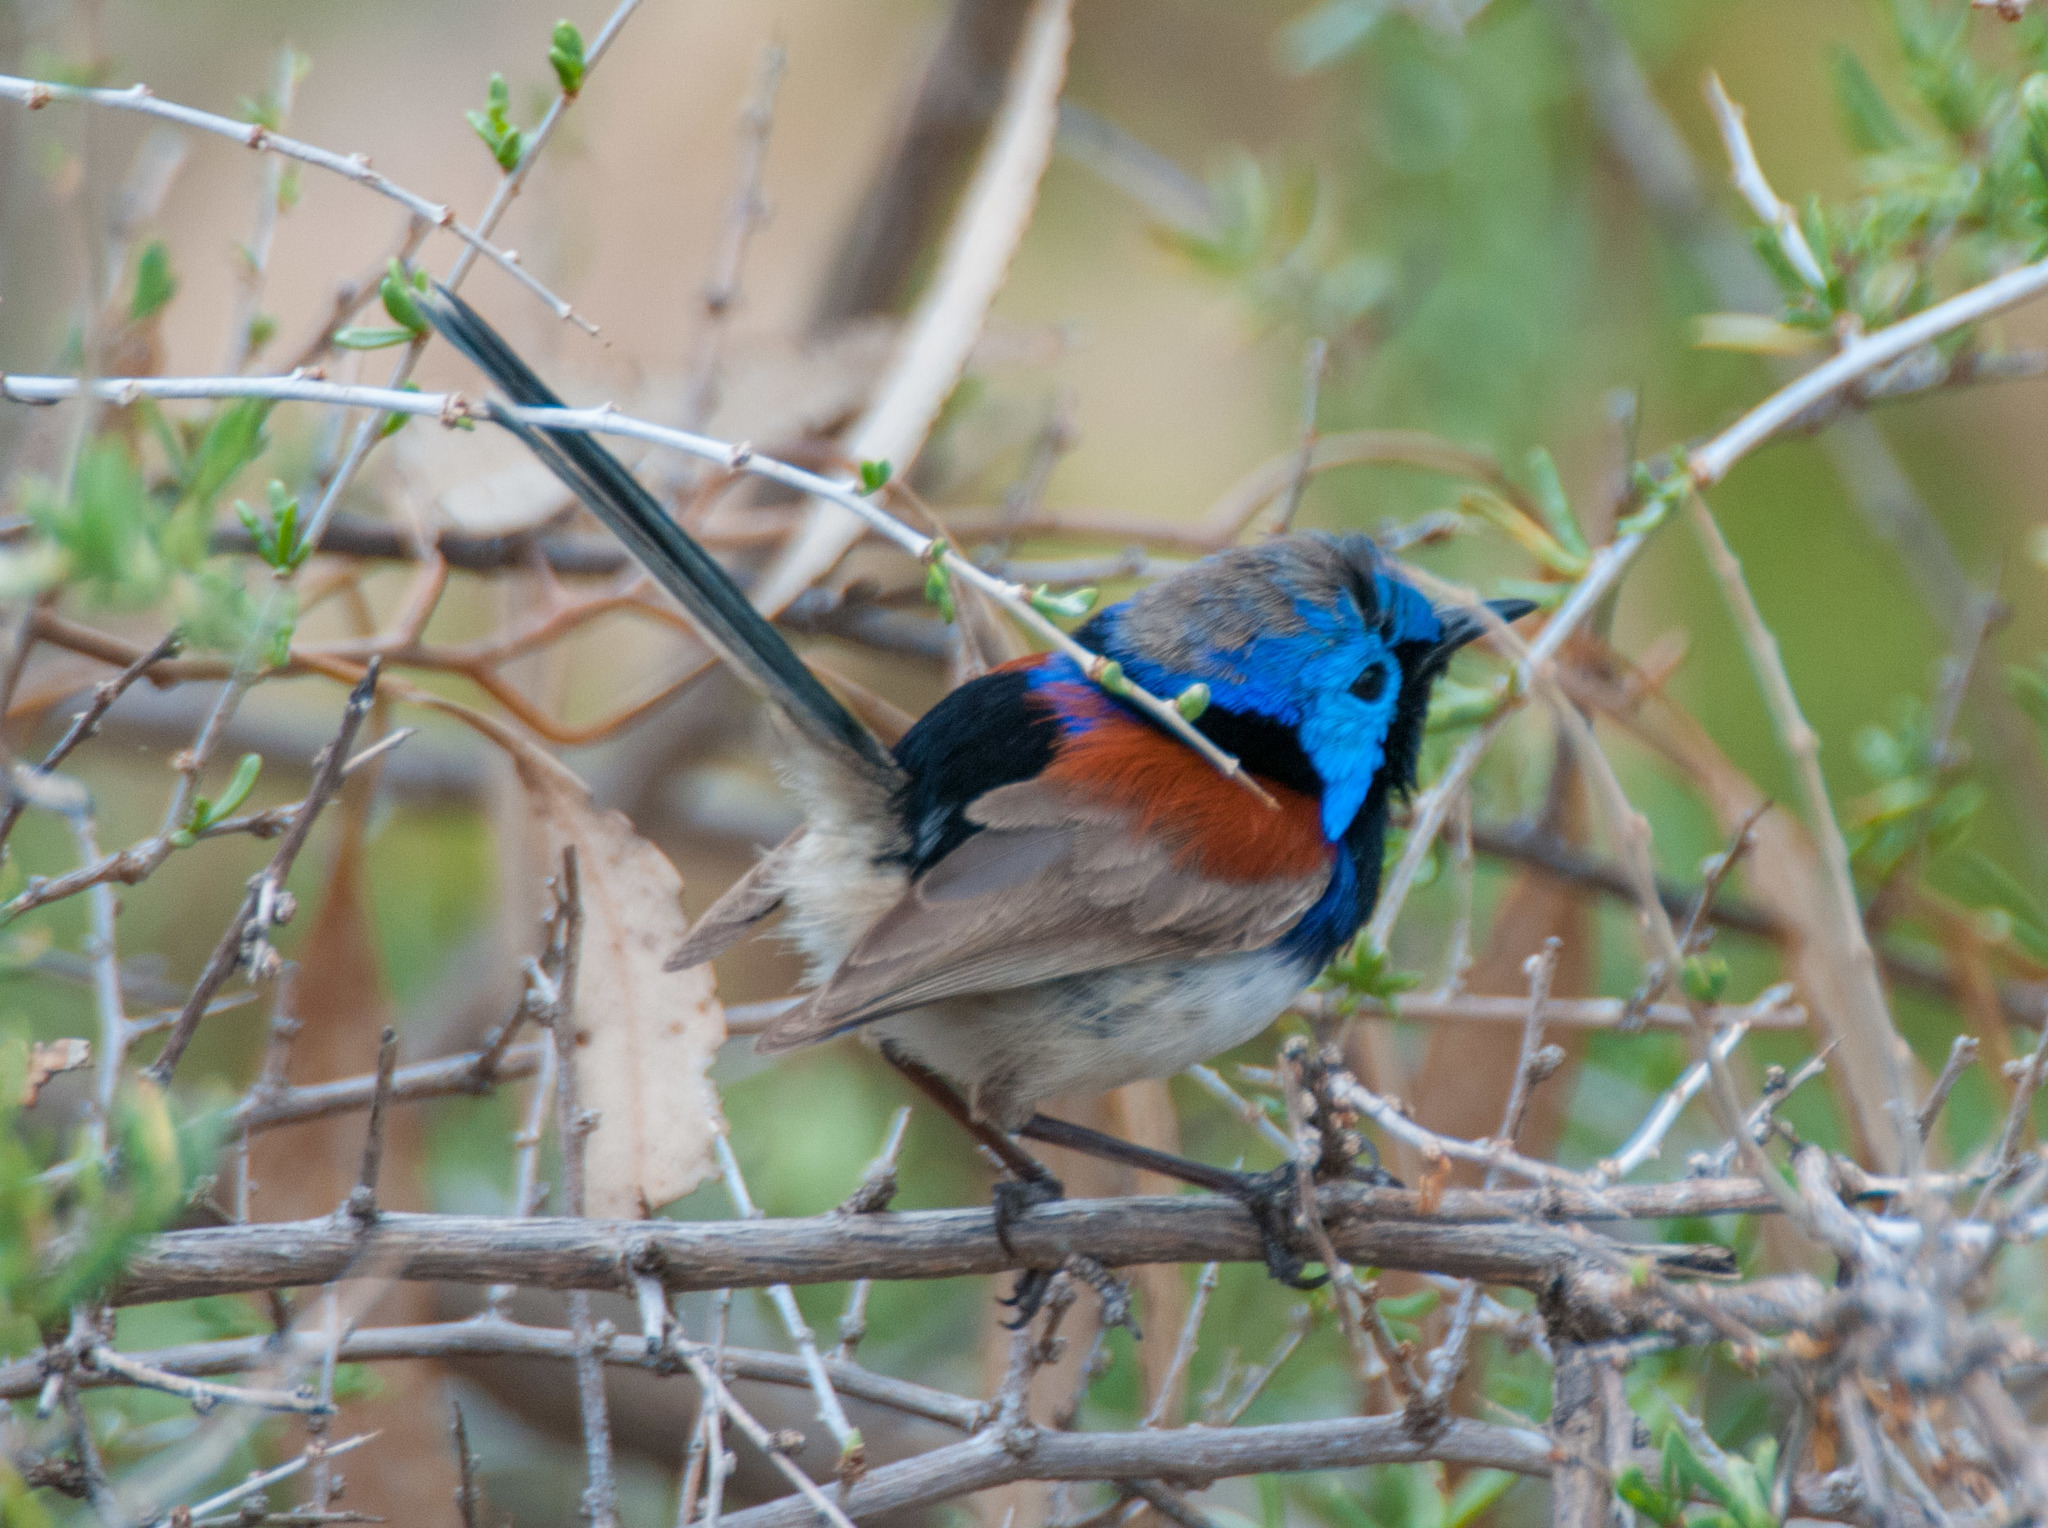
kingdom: Animalia
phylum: Chordata
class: Aves
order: Passeriformes
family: Maluridae
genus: Malurus
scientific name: Malurus assimilis
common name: Purple-backed fairywren
